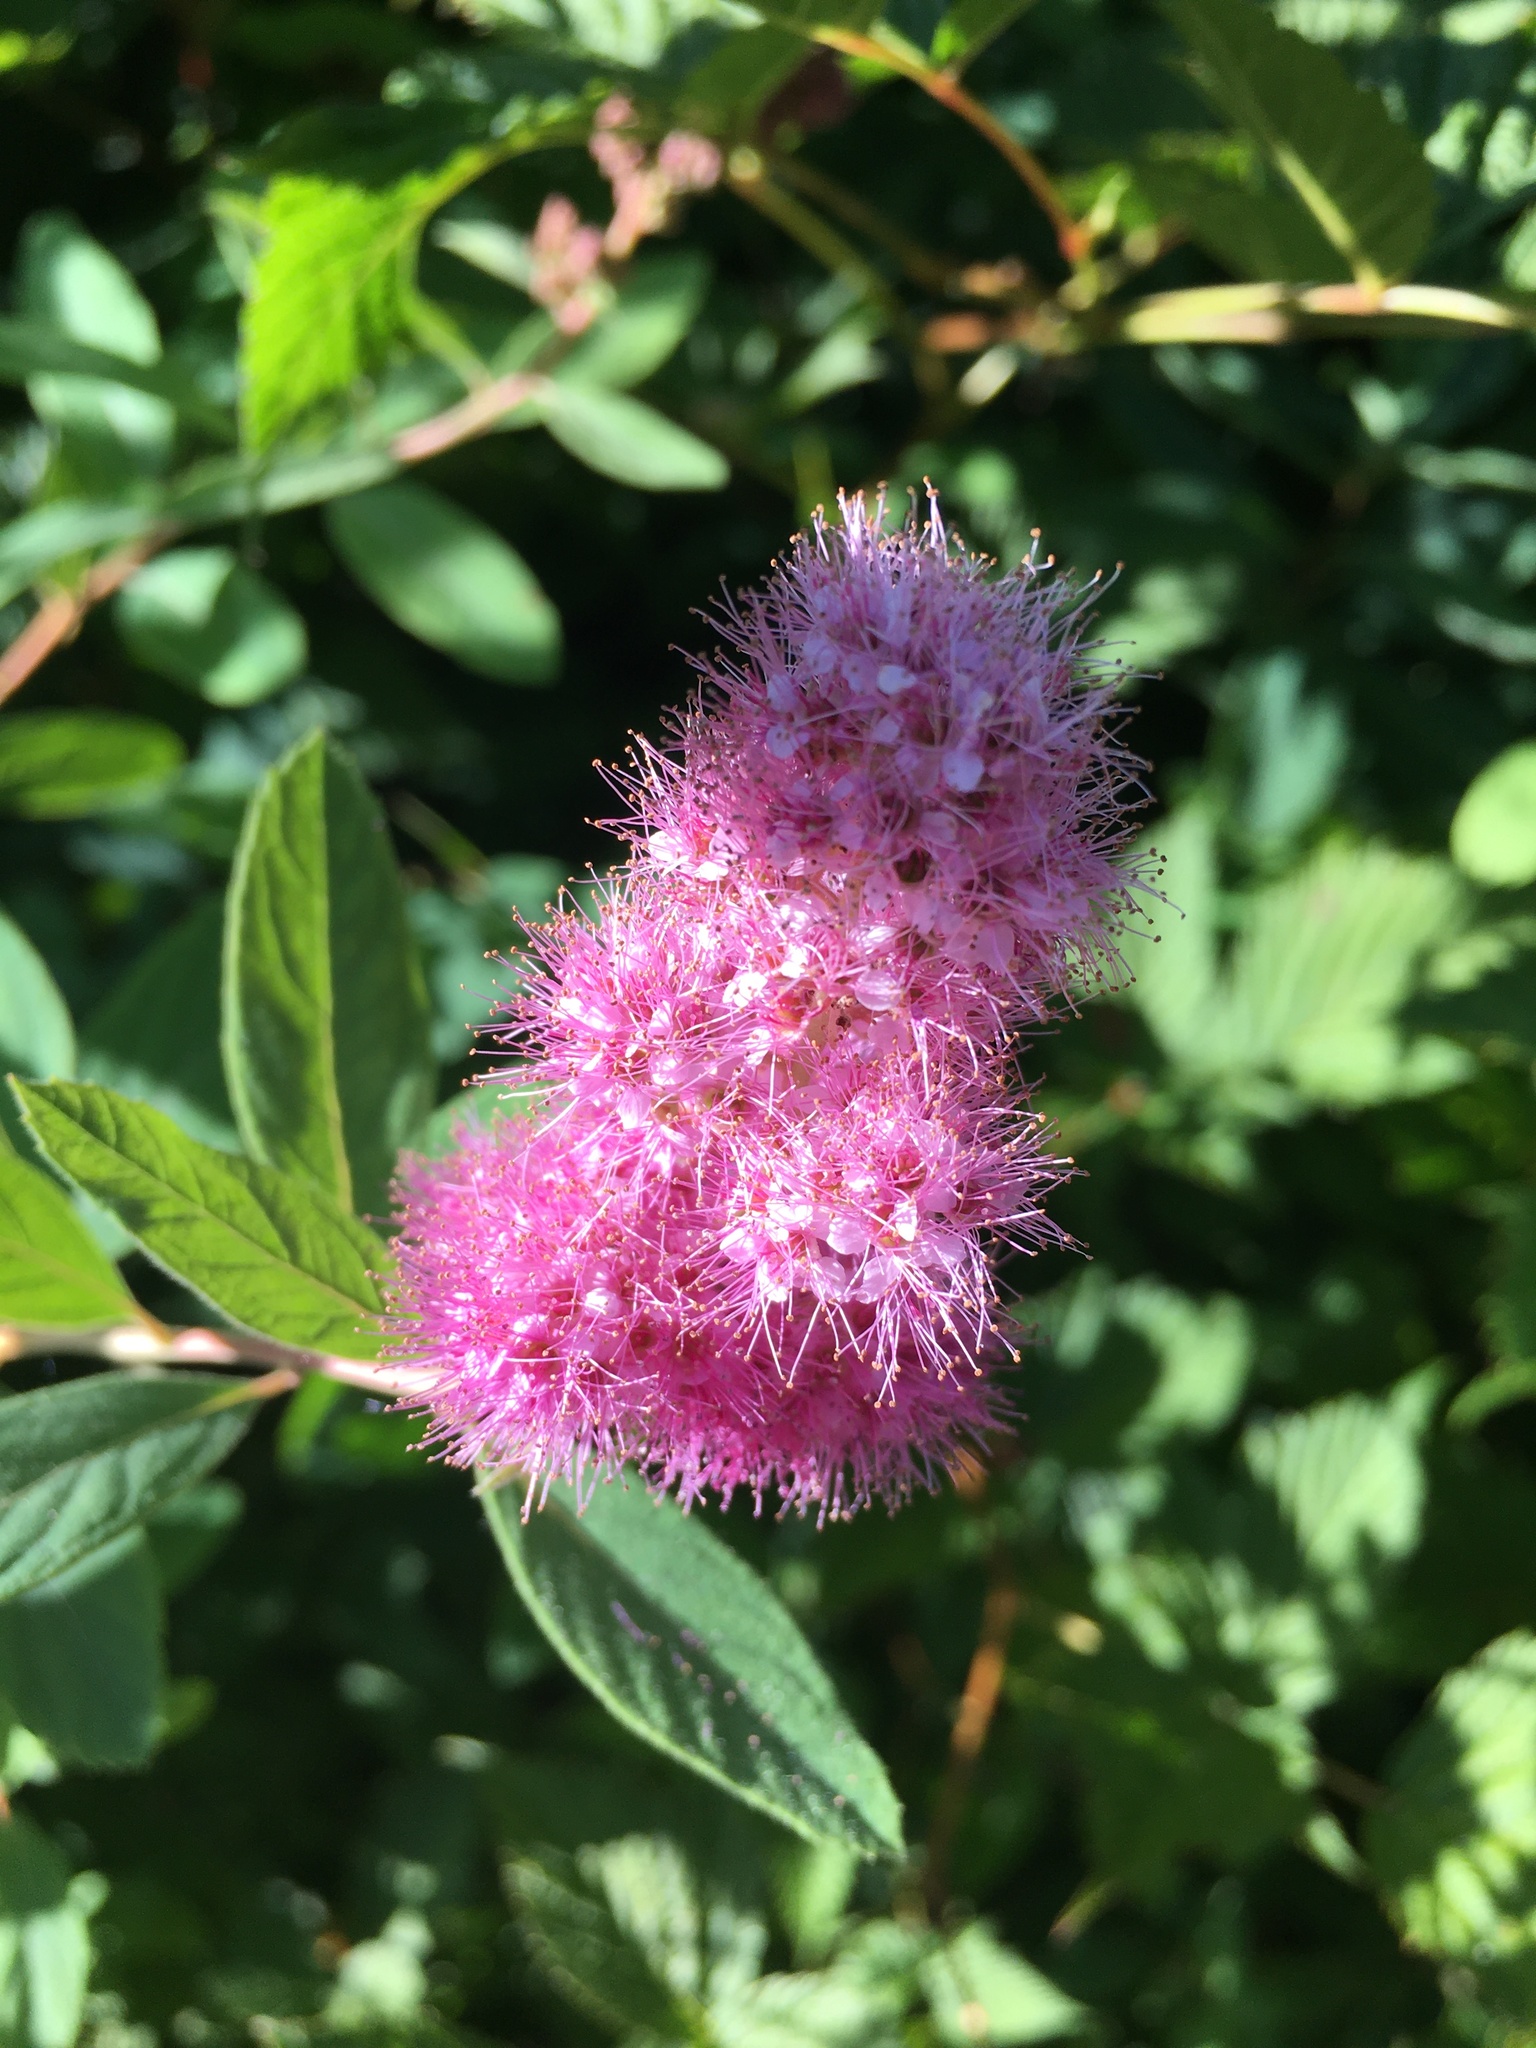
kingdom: Plantae
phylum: Tracheophyta
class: Magnoliopsida
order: Rosales
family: Rosaceae
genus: Spiraea
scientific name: Spiraea douglasii
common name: Steeplebush
